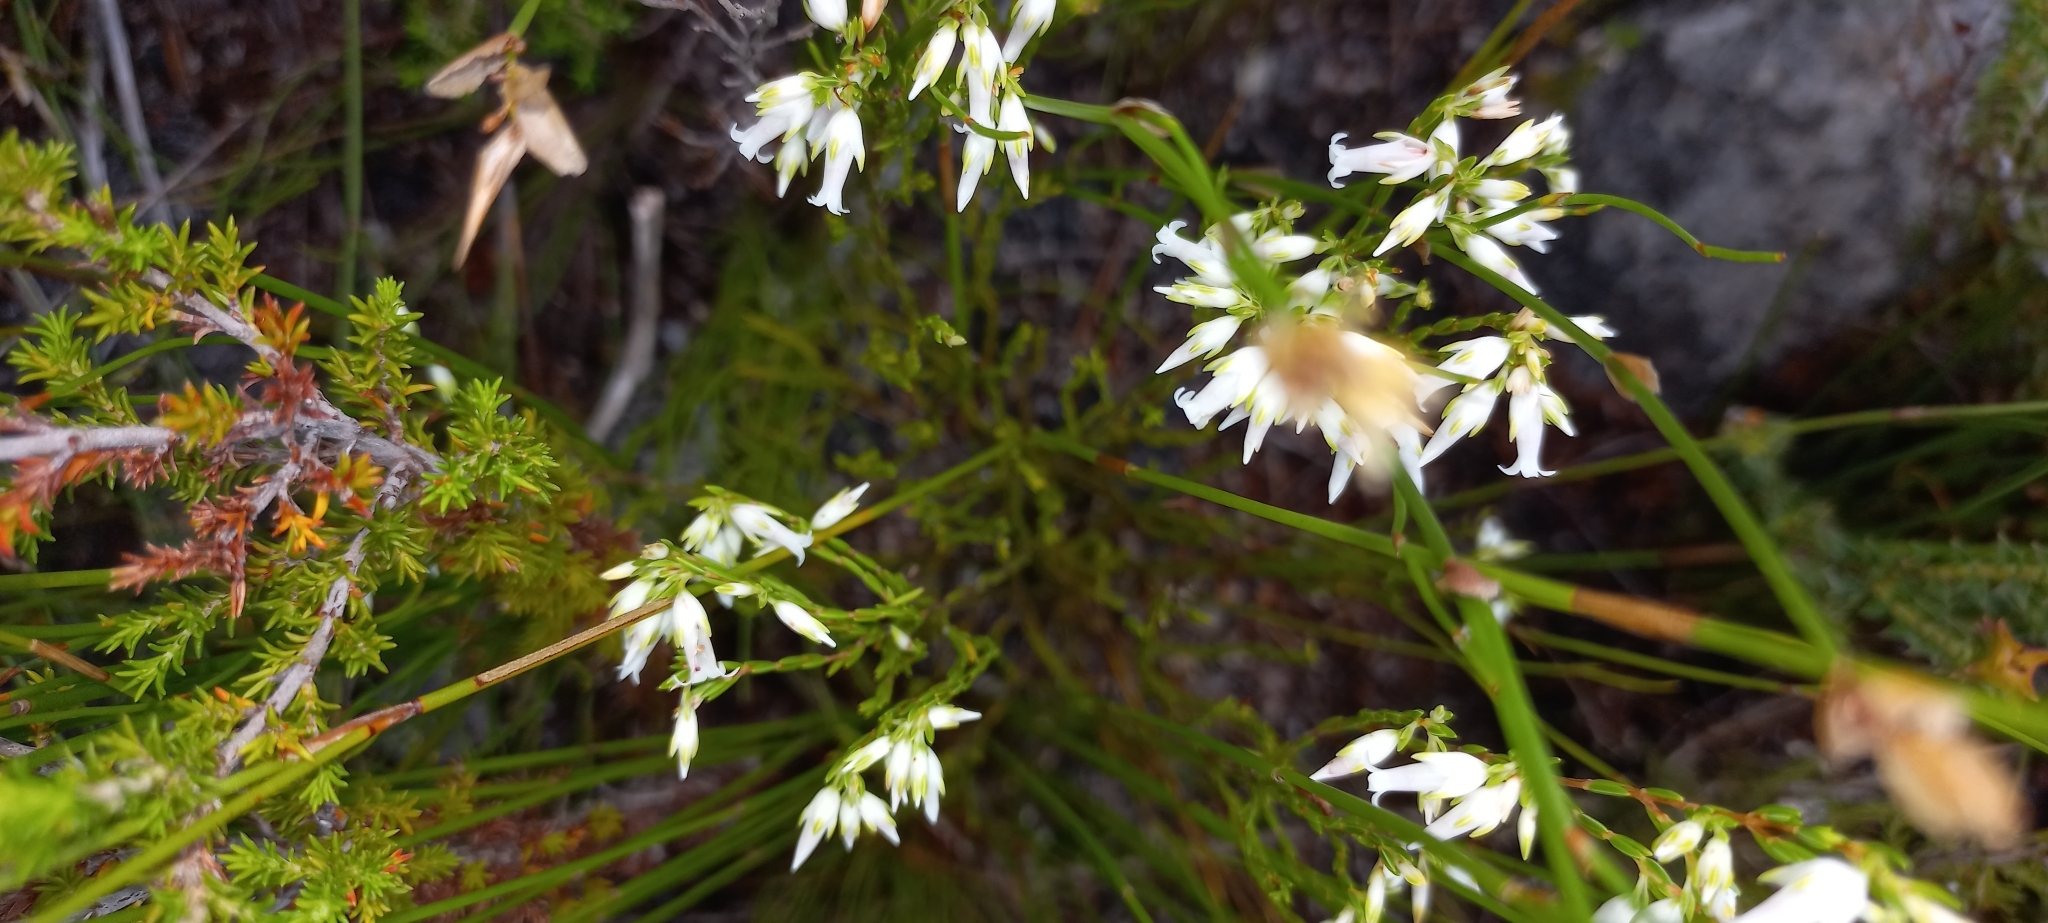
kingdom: Plantae
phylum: Tracheophyta
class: Magnoliopsida
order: Ericales
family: Ericaceae
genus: Erica
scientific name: Erica lutea
